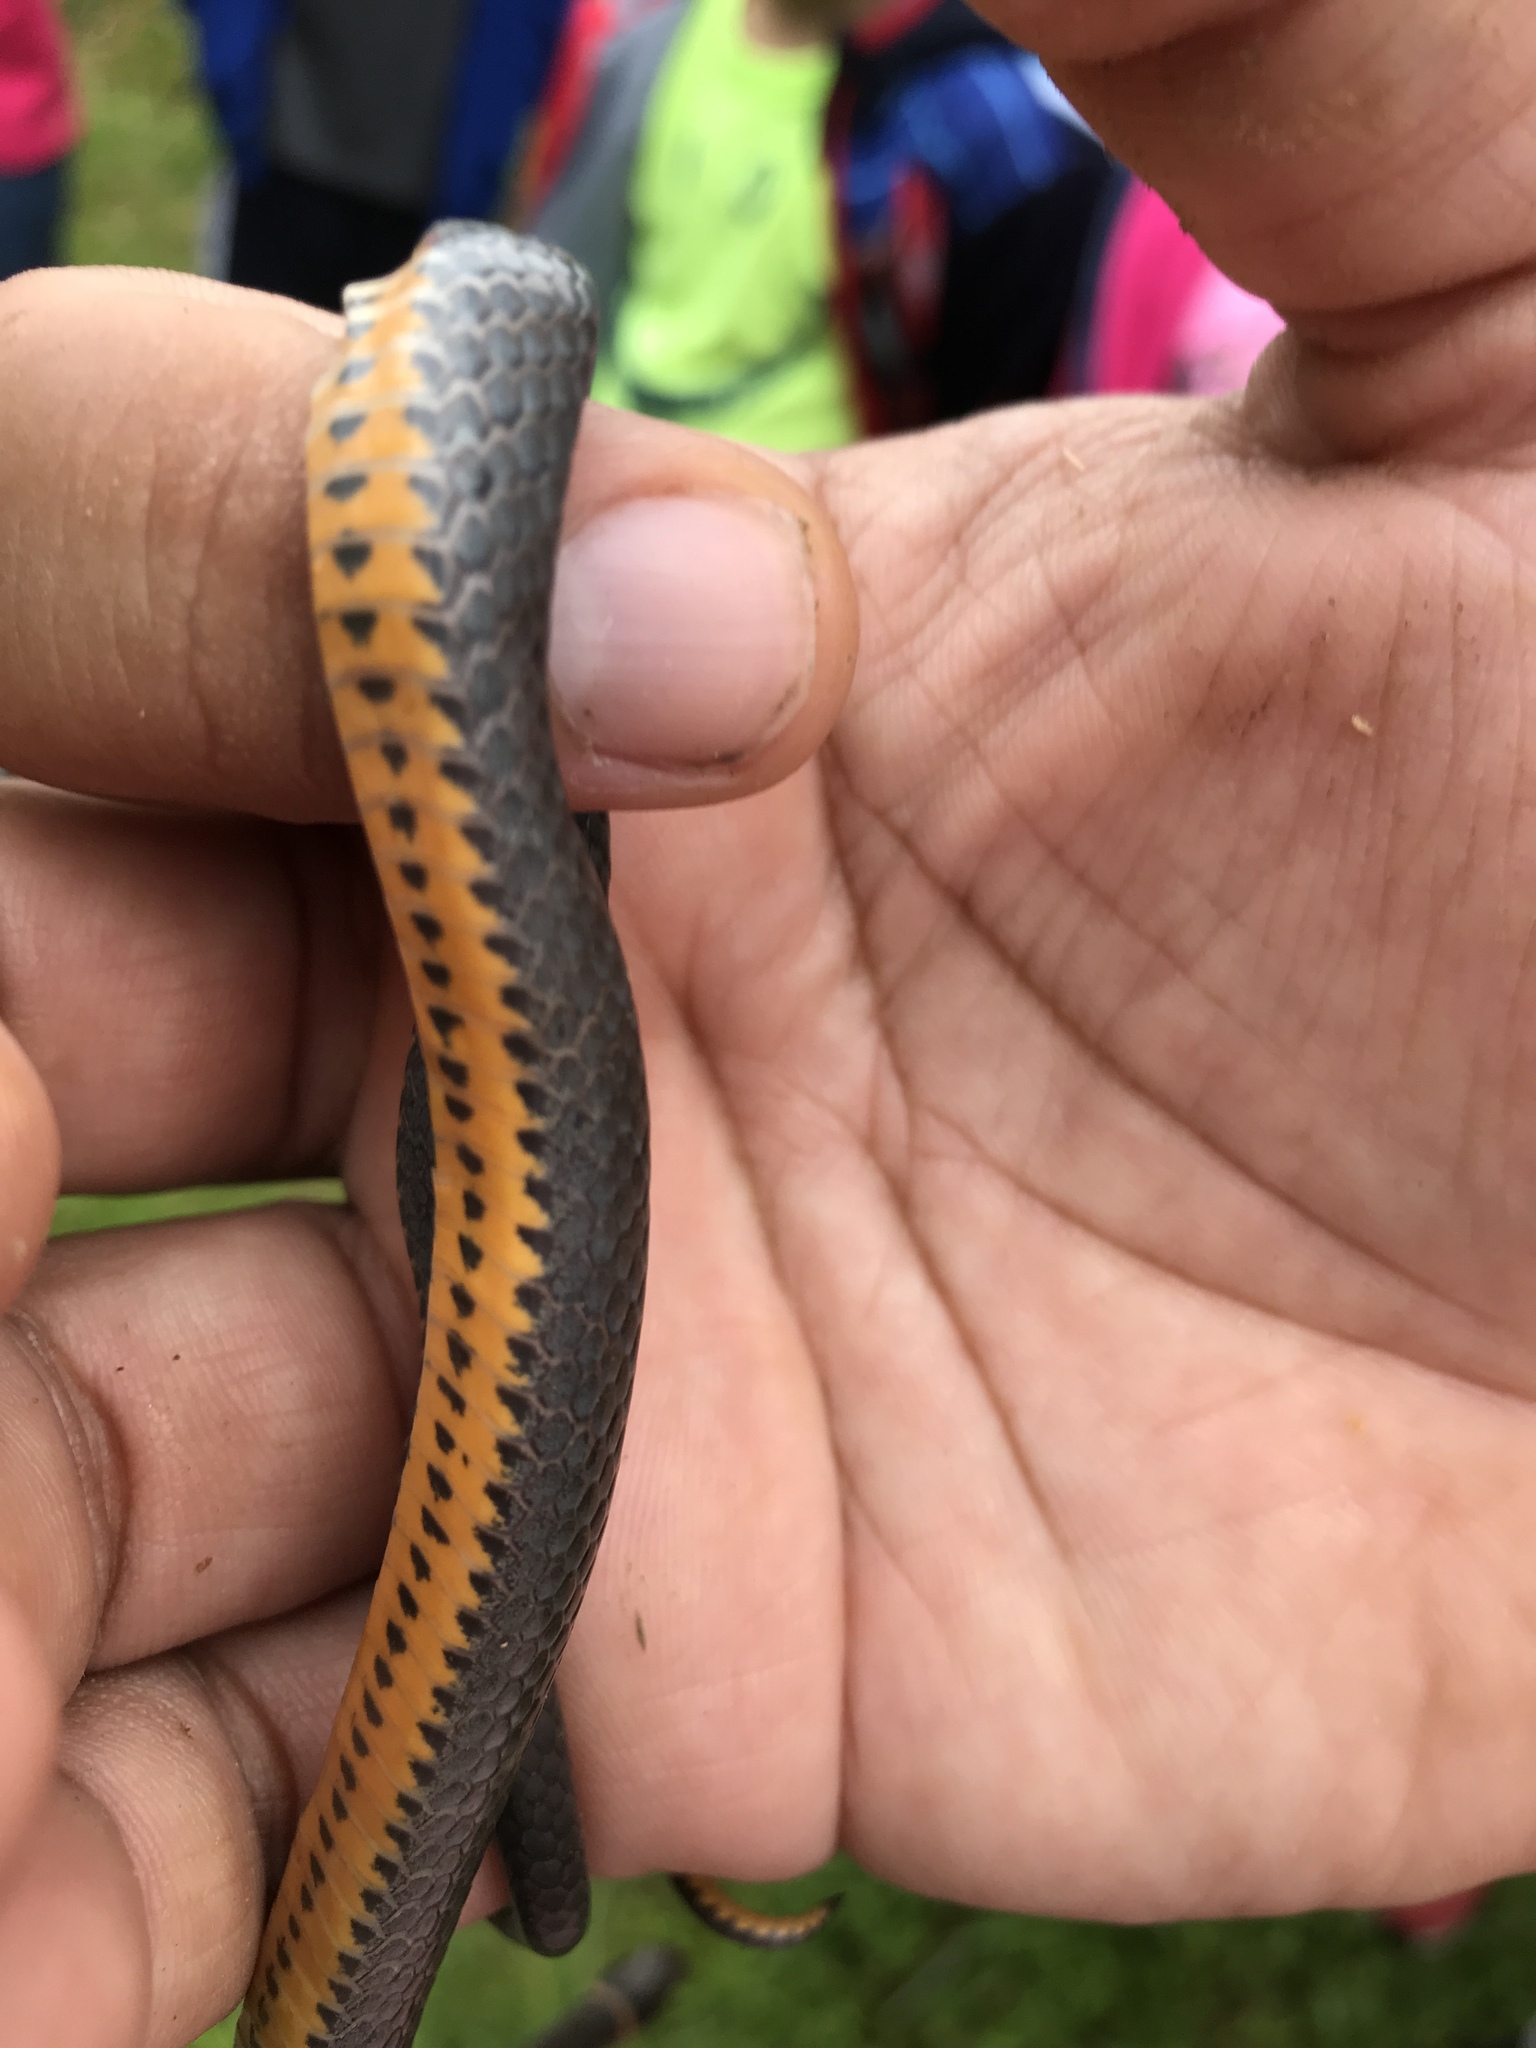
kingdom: Animalia
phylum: Chordata
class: Squamata
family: Colubridae
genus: Diadophis
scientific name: Diadophis punctatus
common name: Ringneck snake
